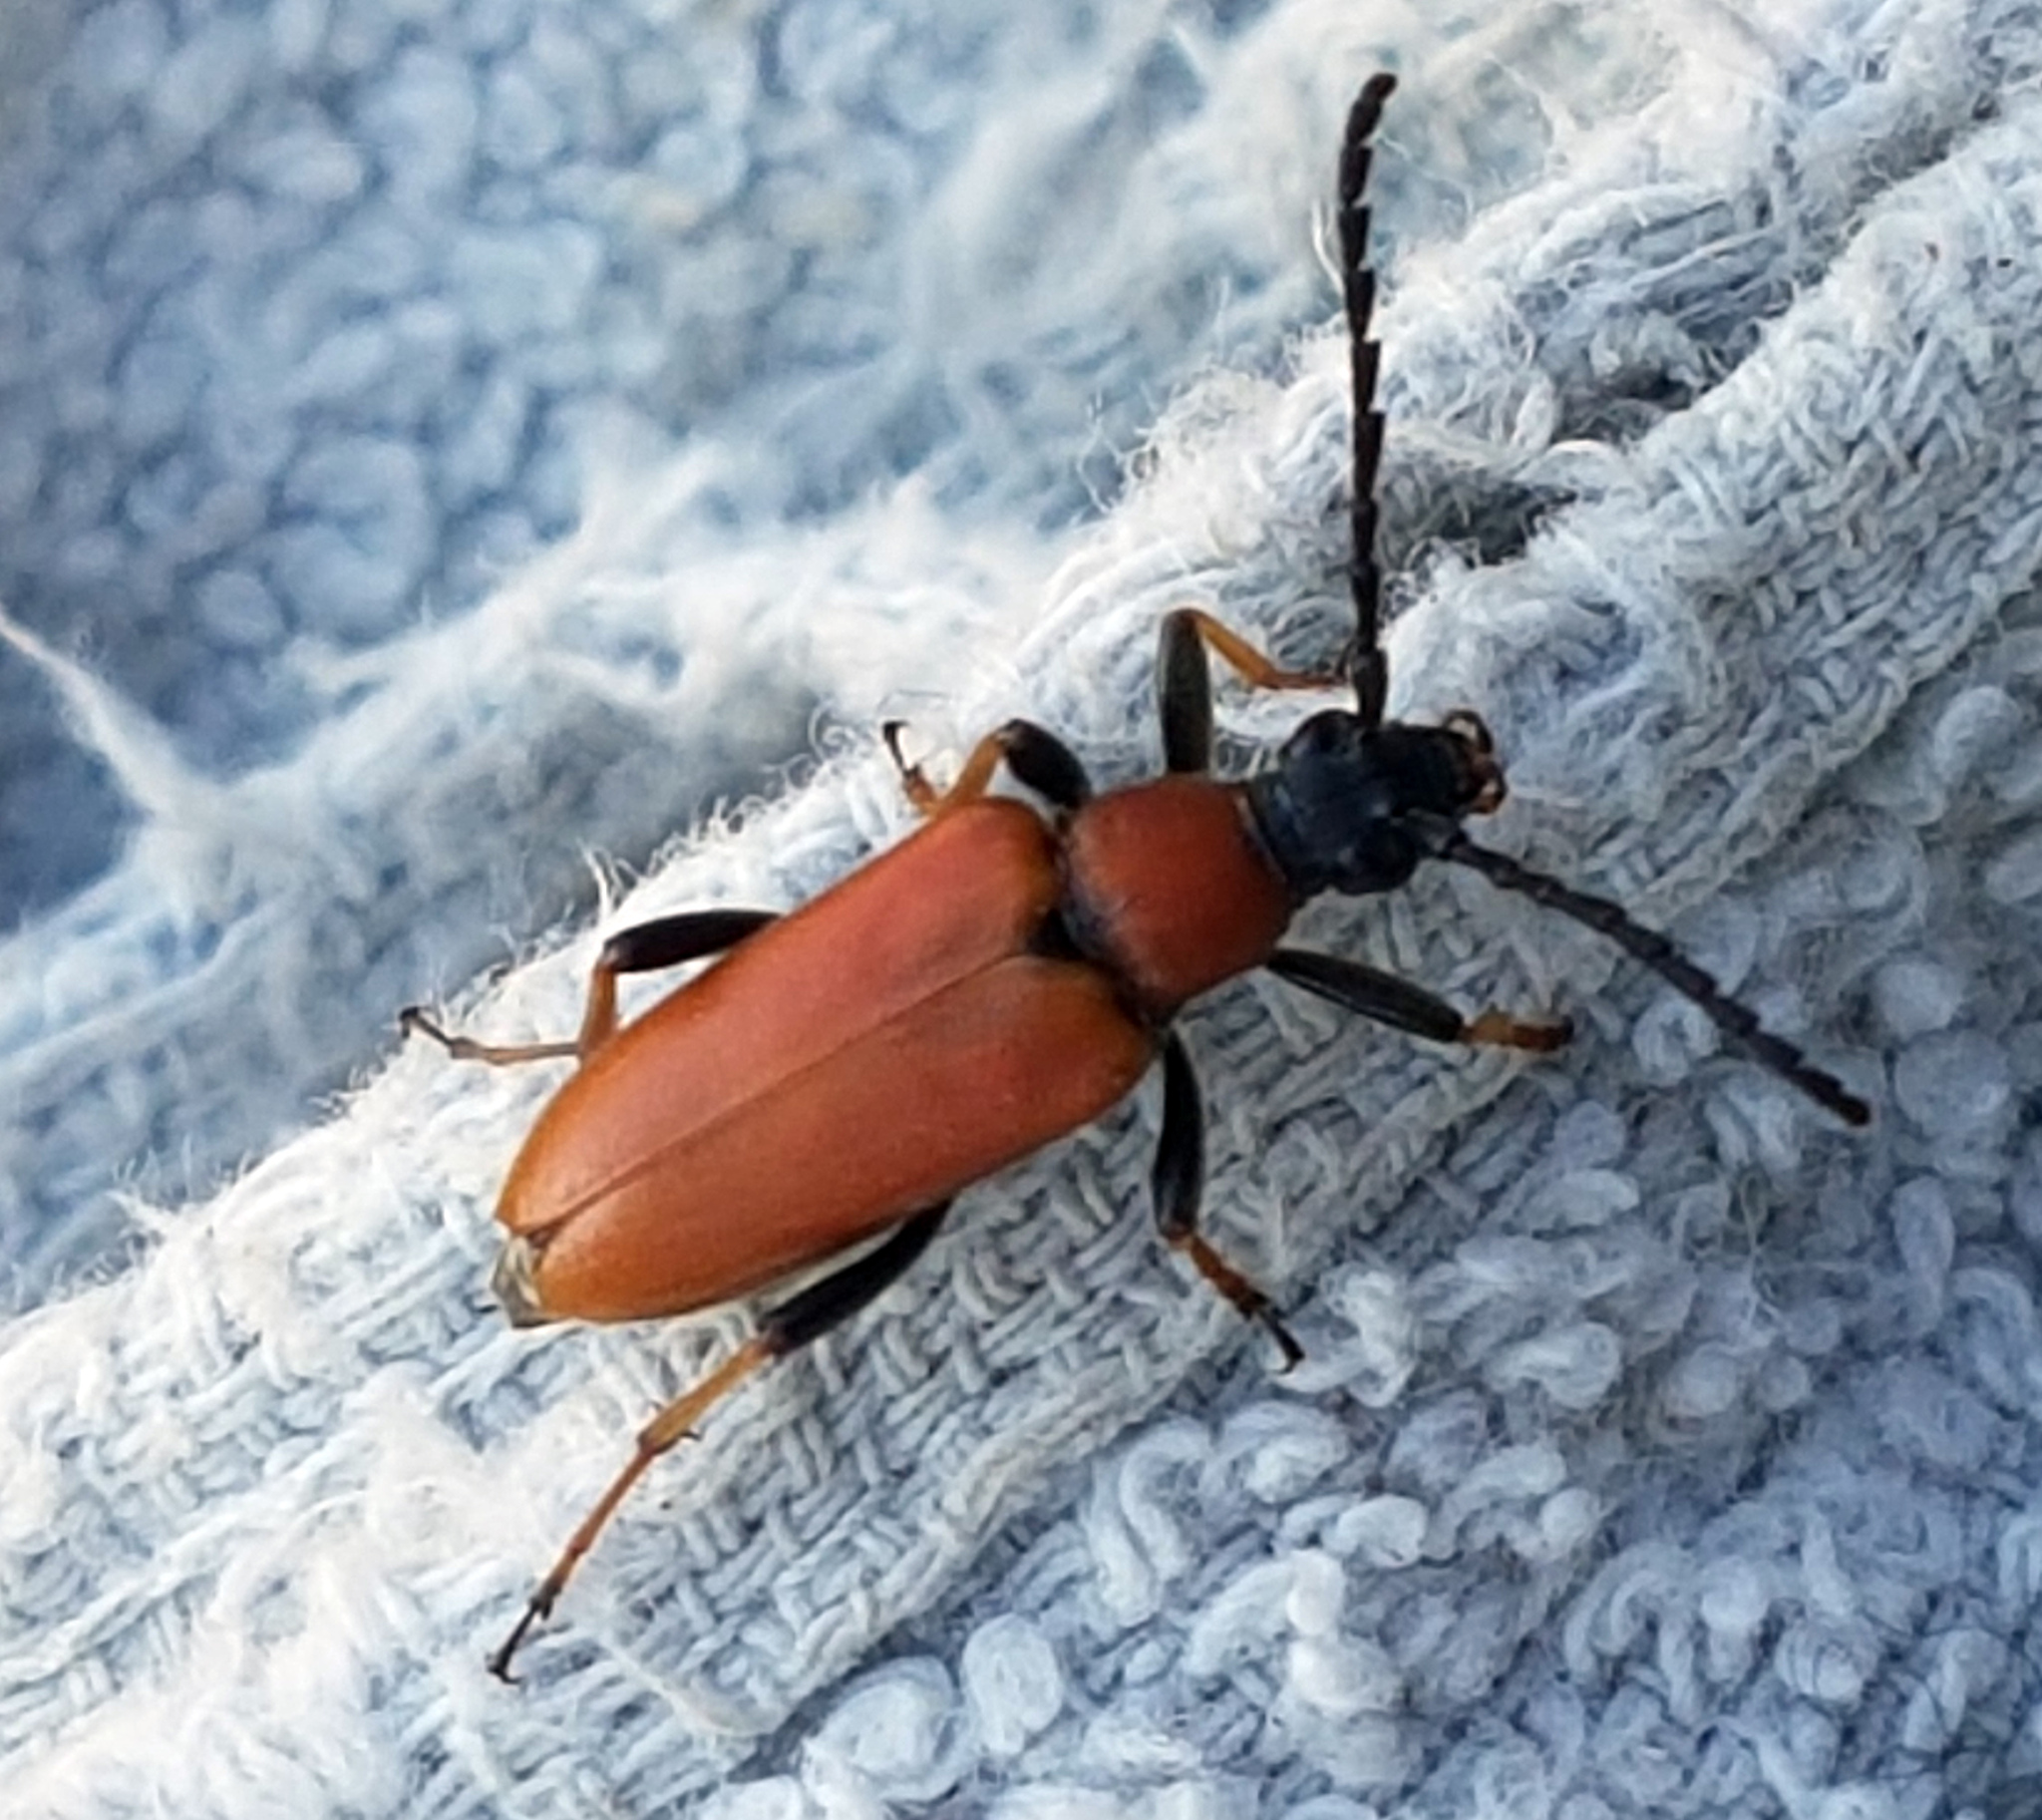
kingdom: Animalia
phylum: Arthropoda
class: Insecta
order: Coleoptera
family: Cerambycidae
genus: Stictoleptura
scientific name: Stictoleptura rubra
